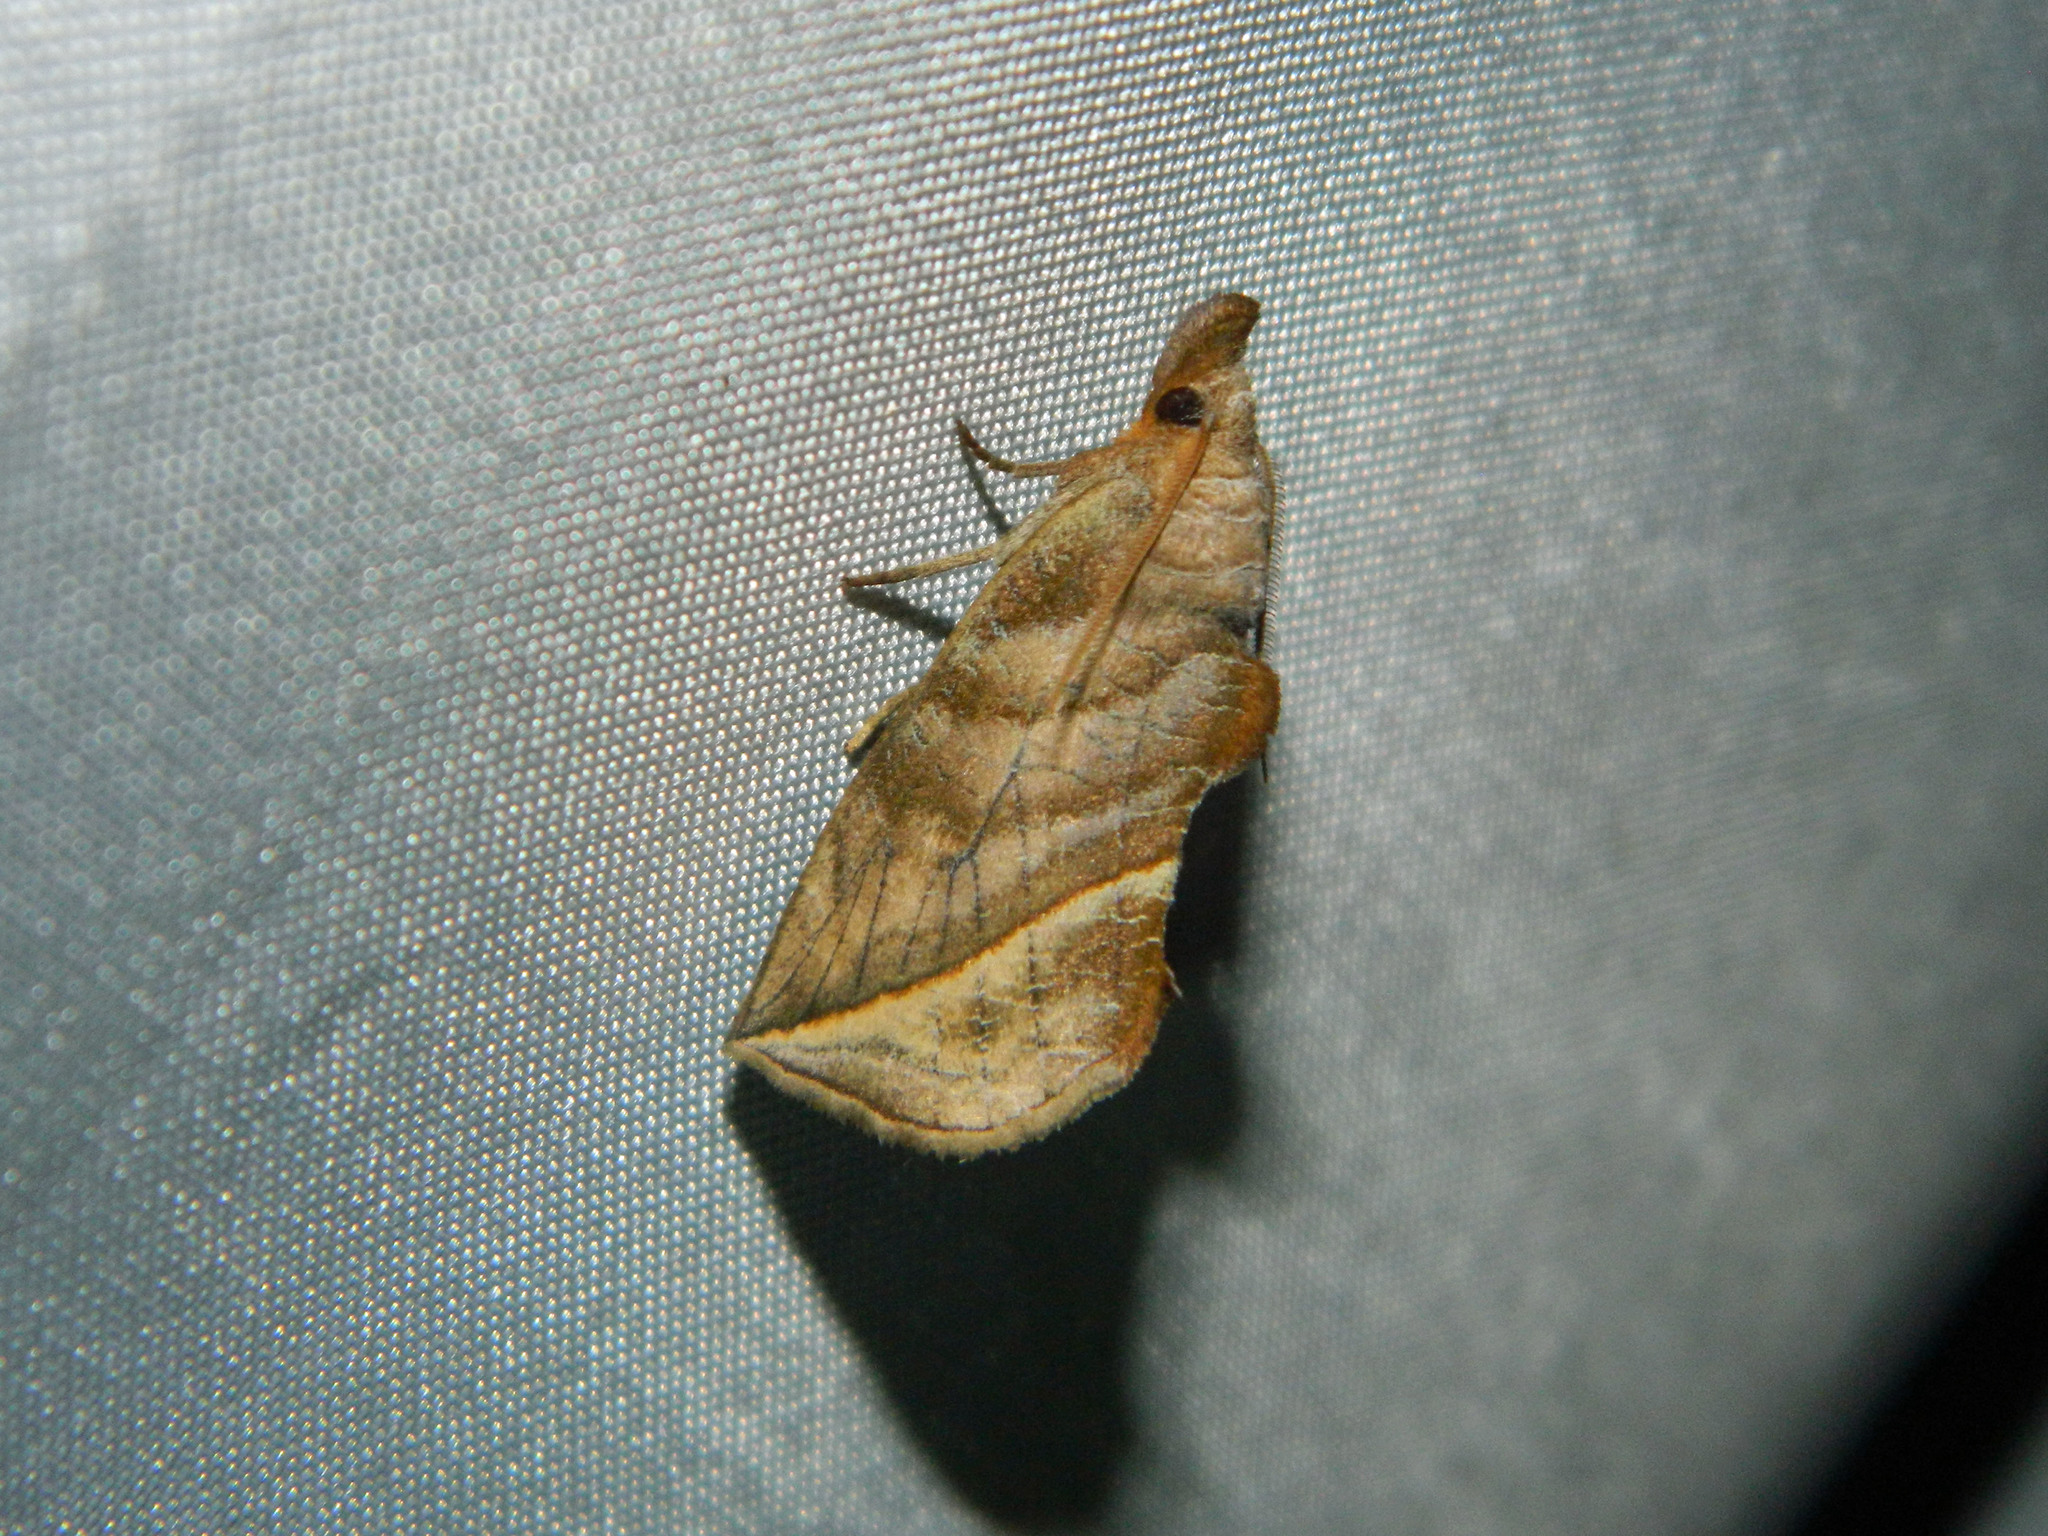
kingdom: Animalia
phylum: Arthropoda
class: Insecta
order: Lepidoptera
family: Erebidae
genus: Calyptra
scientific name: Calyptra canadensis
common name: Canadian owlet
